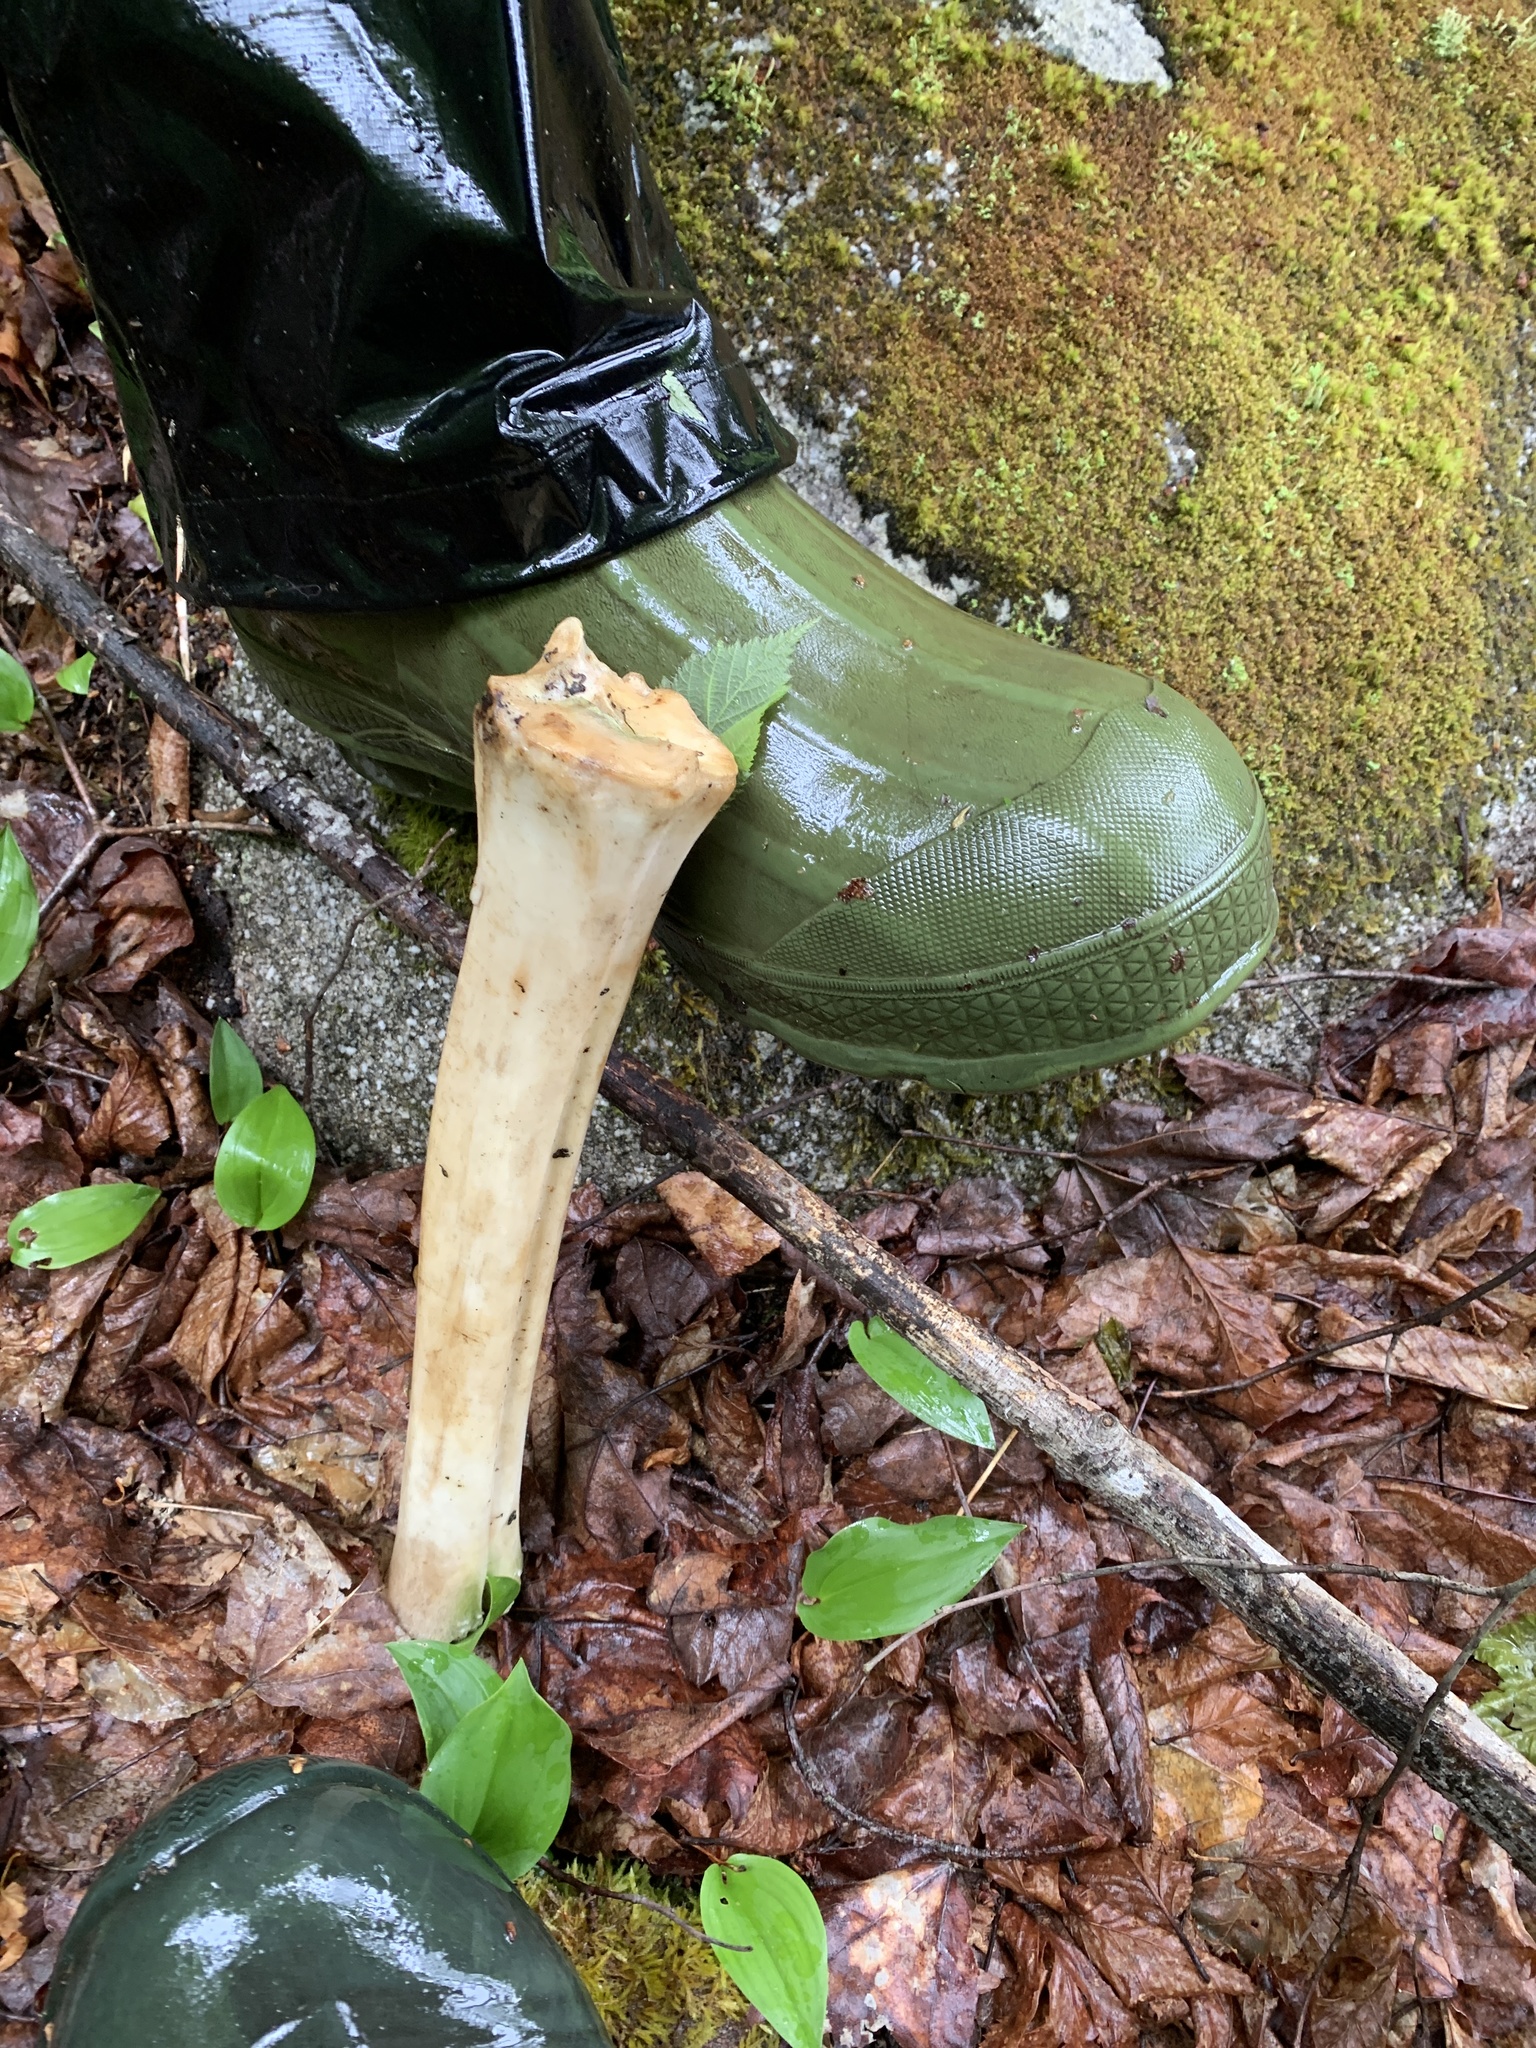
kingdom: Animalia
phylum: Chordata
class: Mammalia
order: Artiodactyla
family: Cervidae
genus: Alces
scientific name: Alces alces
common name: Moose
